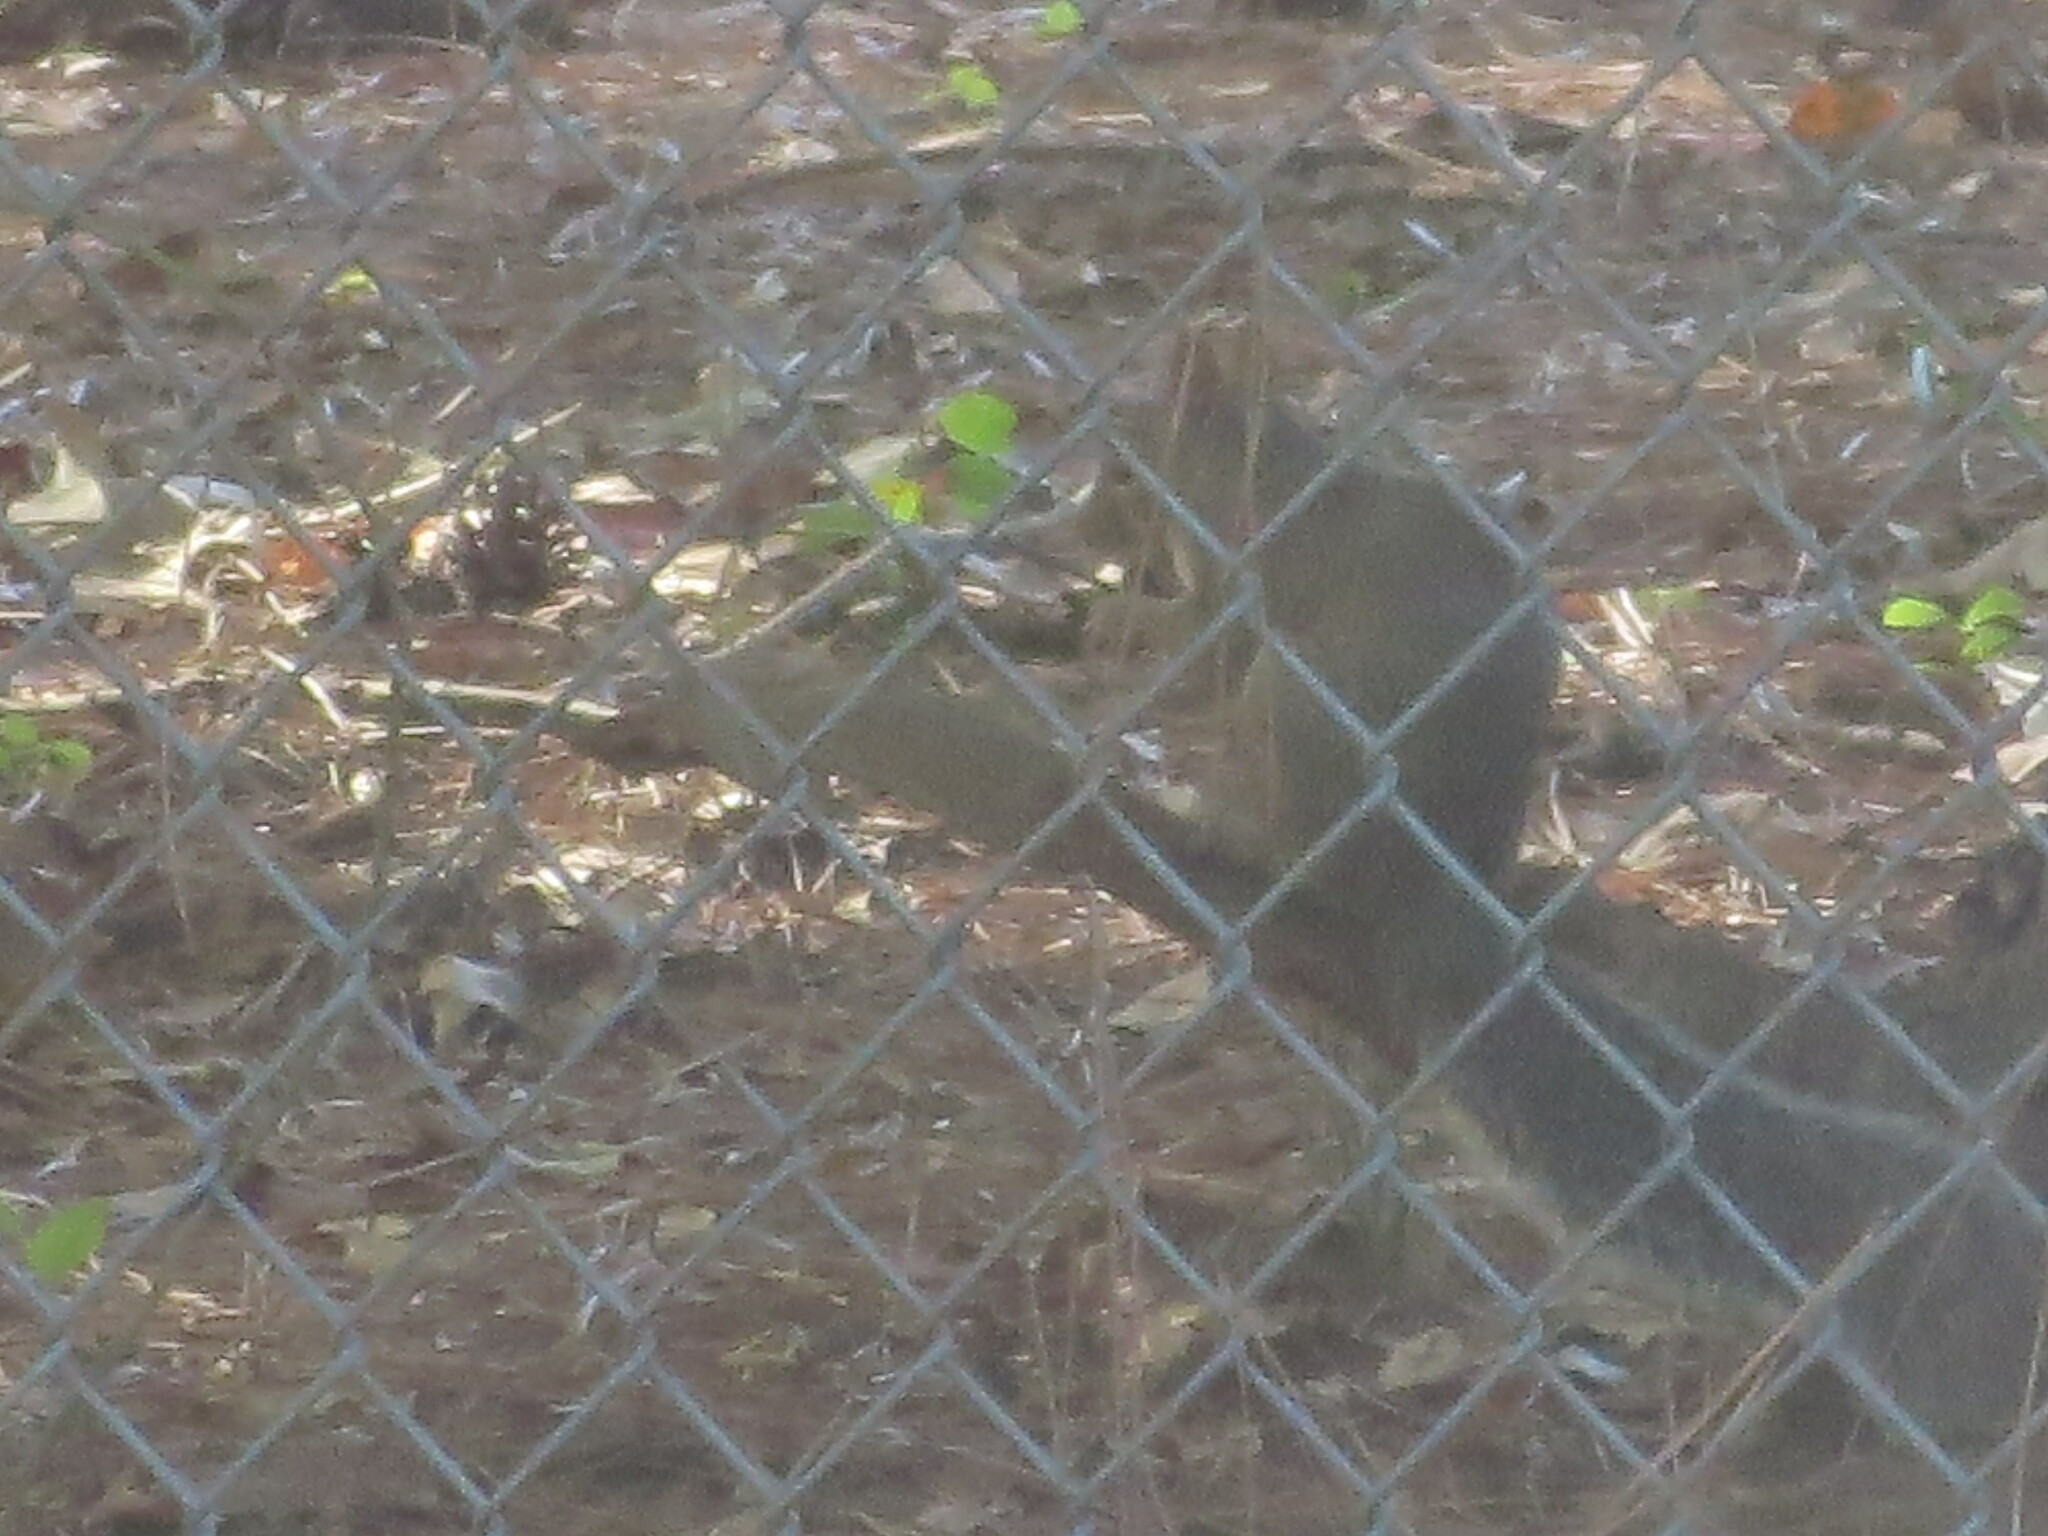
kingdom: Animalia
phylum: Chordata
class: Mammalia
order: Rodentia
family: Sciuridae
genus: Sciurus
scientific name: Sciurus carolinensis
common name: Eastern gray squirrel
